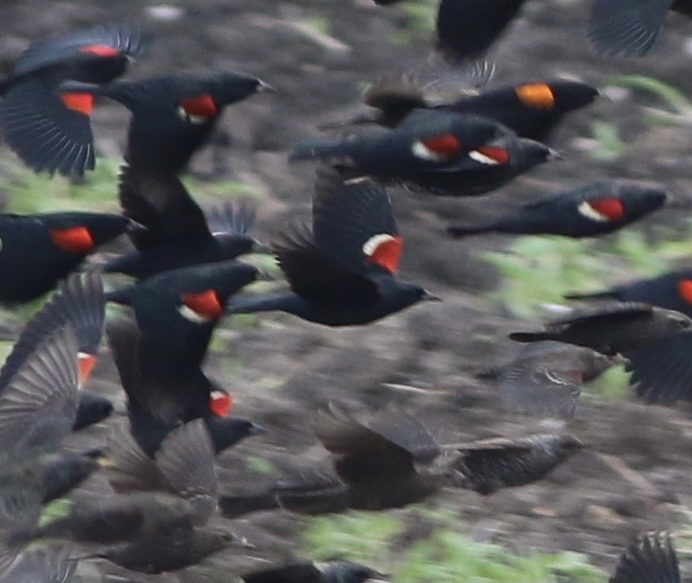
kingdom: Animalia
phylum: Chordata
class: Aves
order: Passeriformes
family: Icteridae
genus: Agelaius
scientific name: Agelaius tricolor
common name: Tricolored blackbird
